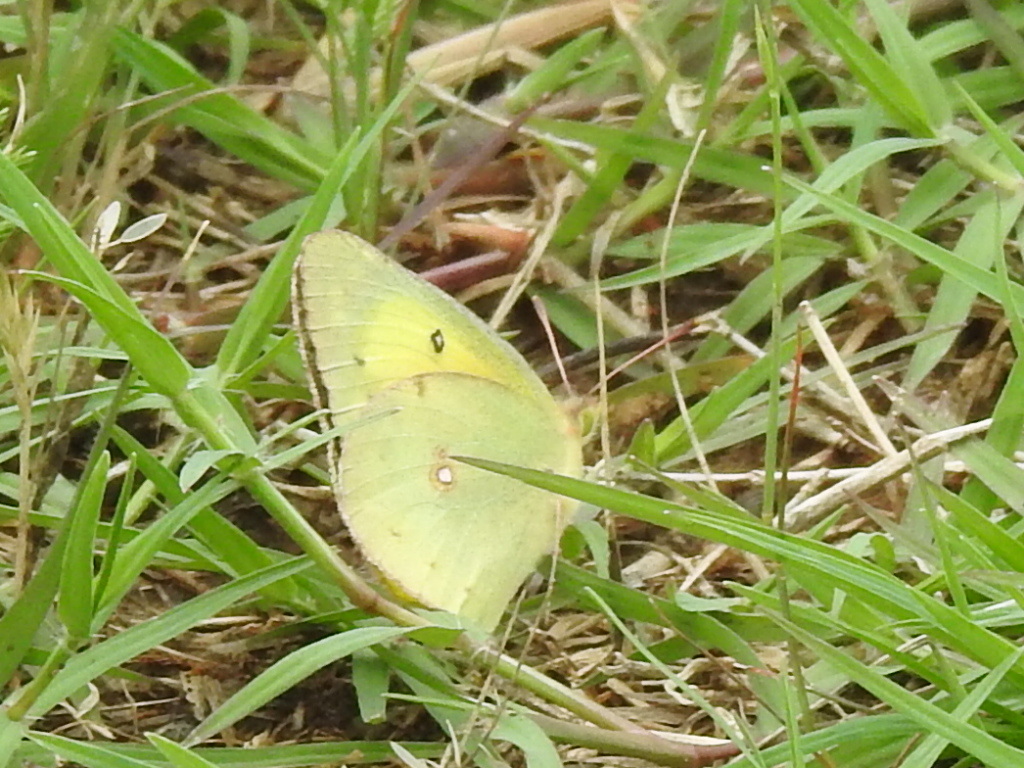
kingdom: Animalia
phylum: Arthropoda
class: Insecta
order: Lepidoptera
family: Pieridae
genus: Colias
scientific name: Colias eurytheme
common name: Alfalfa butterfly
